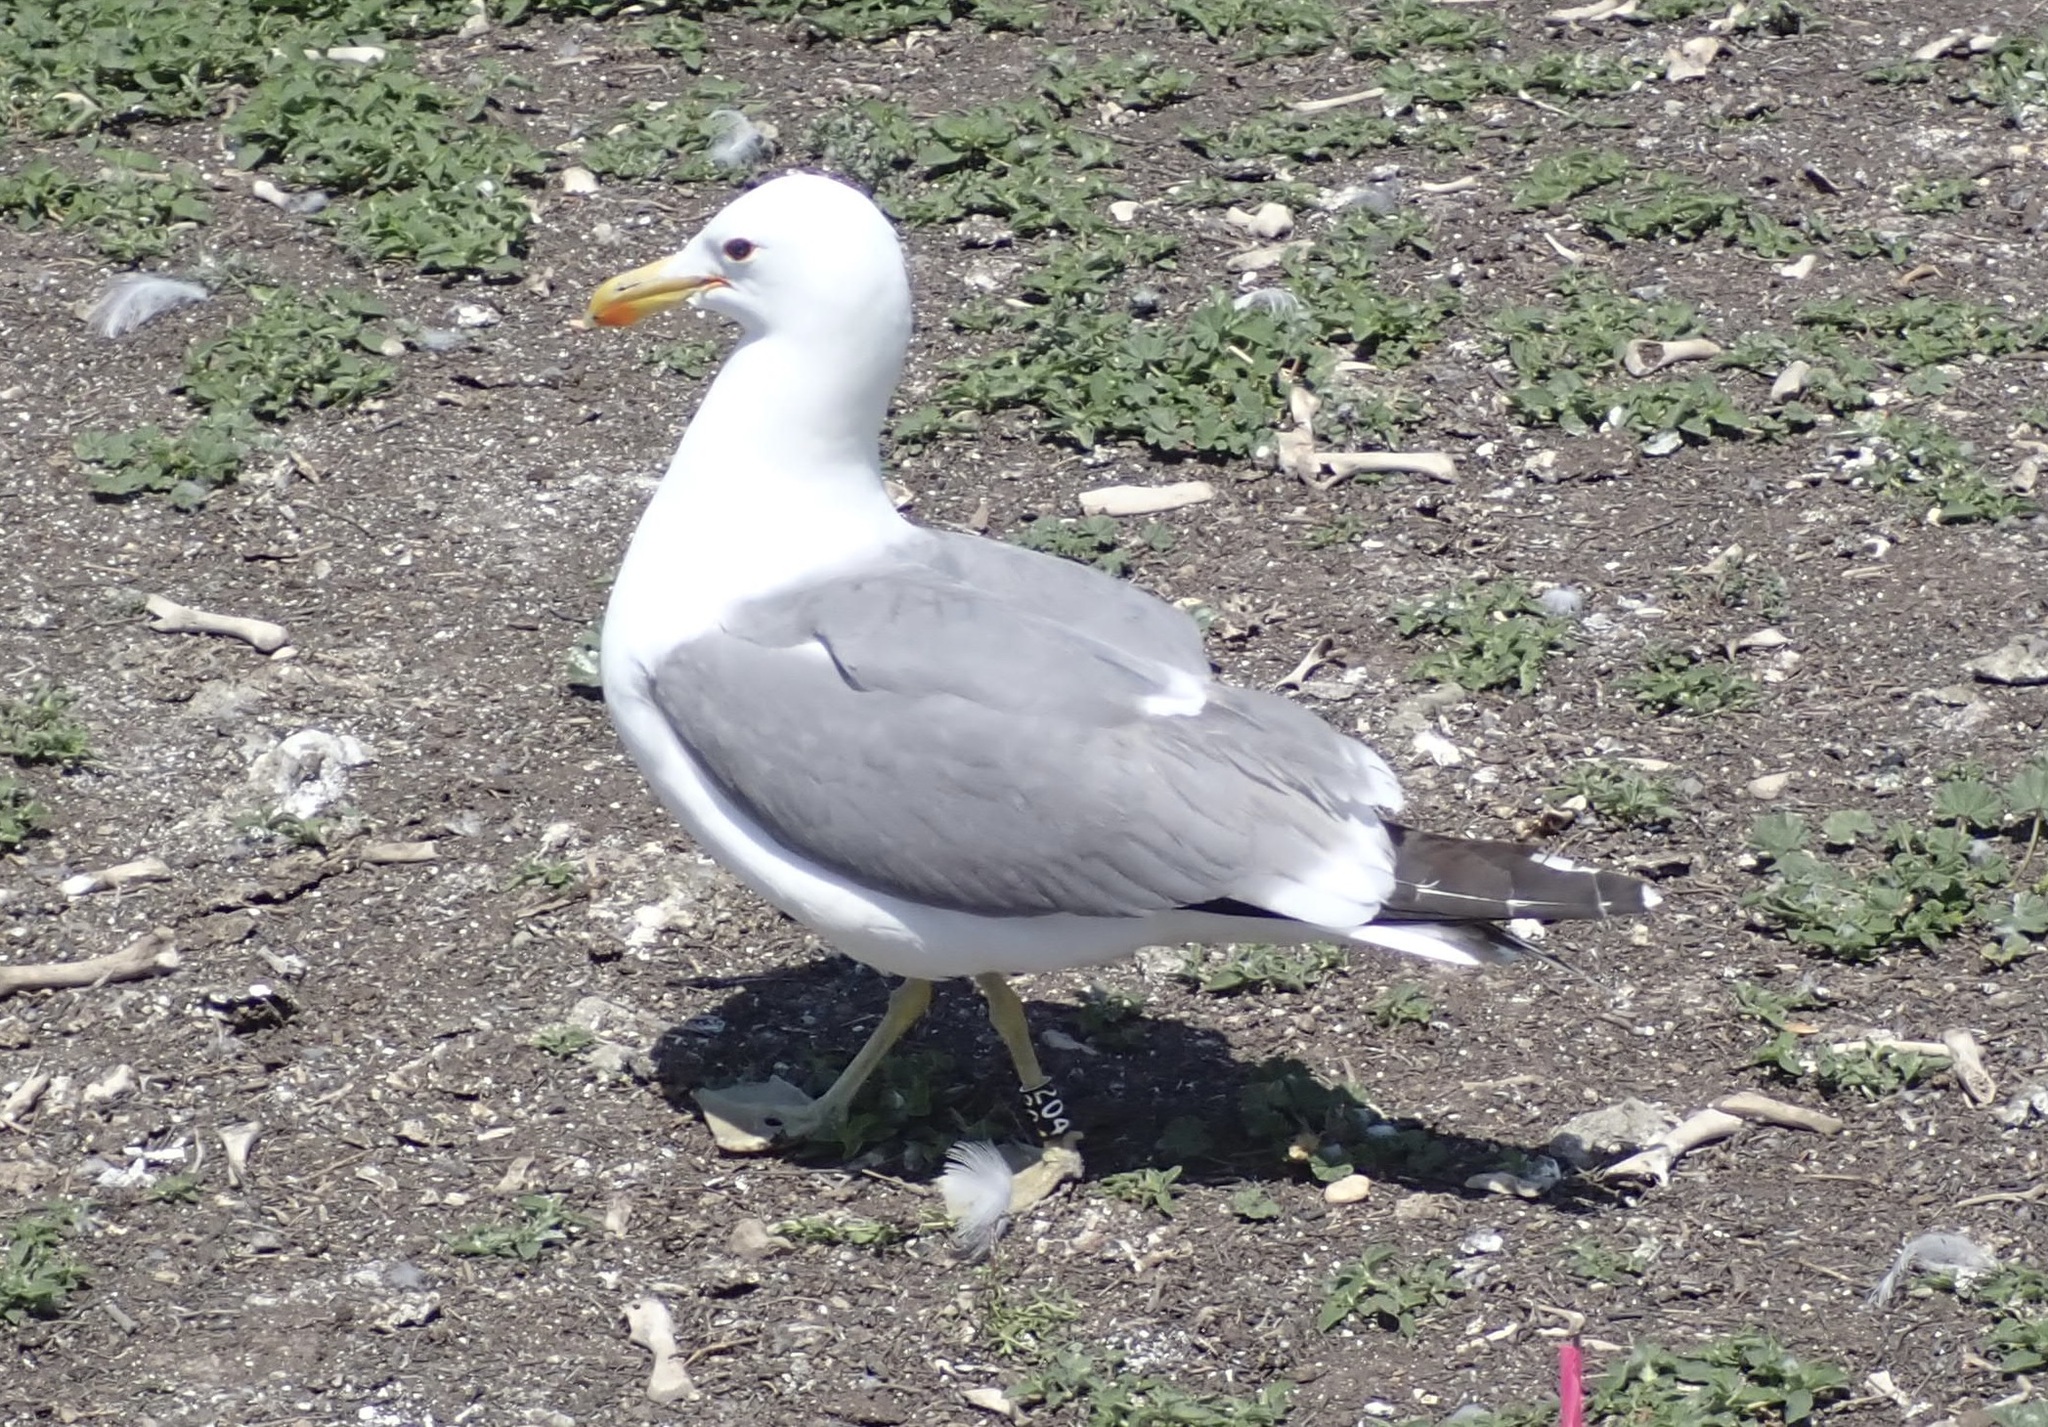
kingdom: Animalia
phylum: Chordata
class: Aves
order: Charadriiformes
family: Laridae
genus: Larus
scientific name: Larus californicus
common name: California gull
